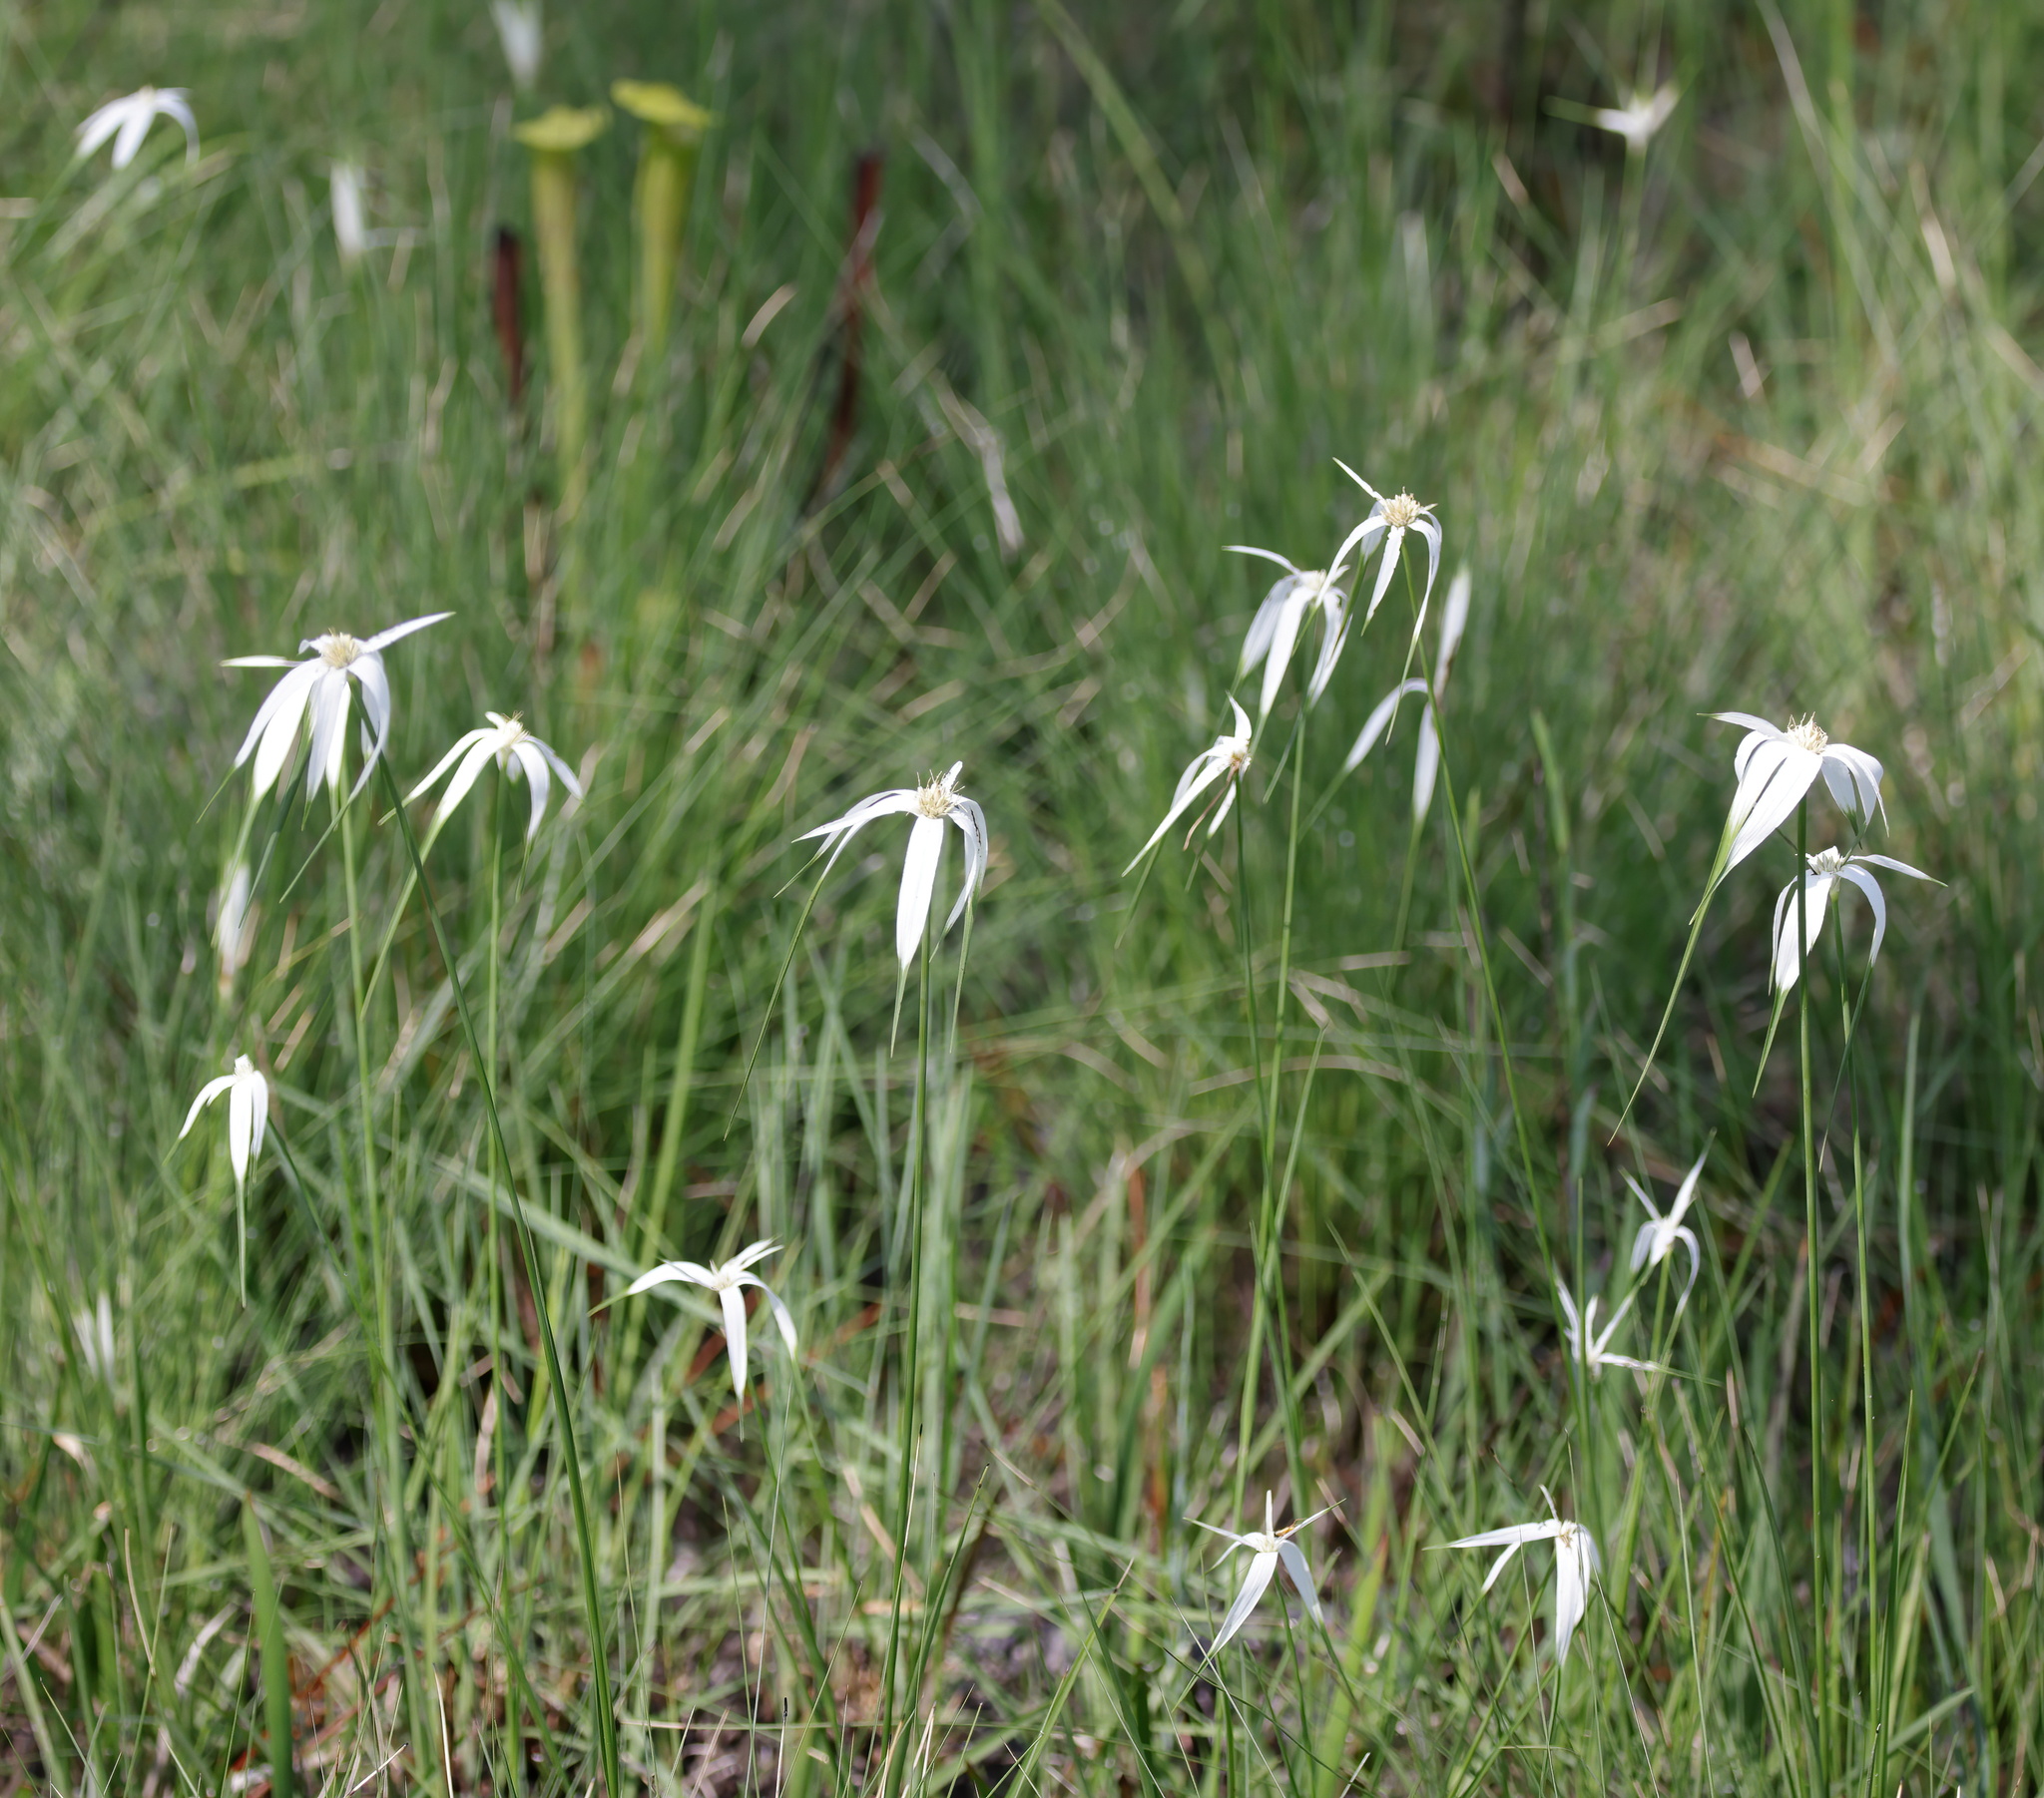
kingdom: Plantae
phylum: Tracheophyta
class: Liliopsida
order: Poales
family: Cyperaceae
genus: Rhynchospora
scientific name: Rhynchospora latifolia
